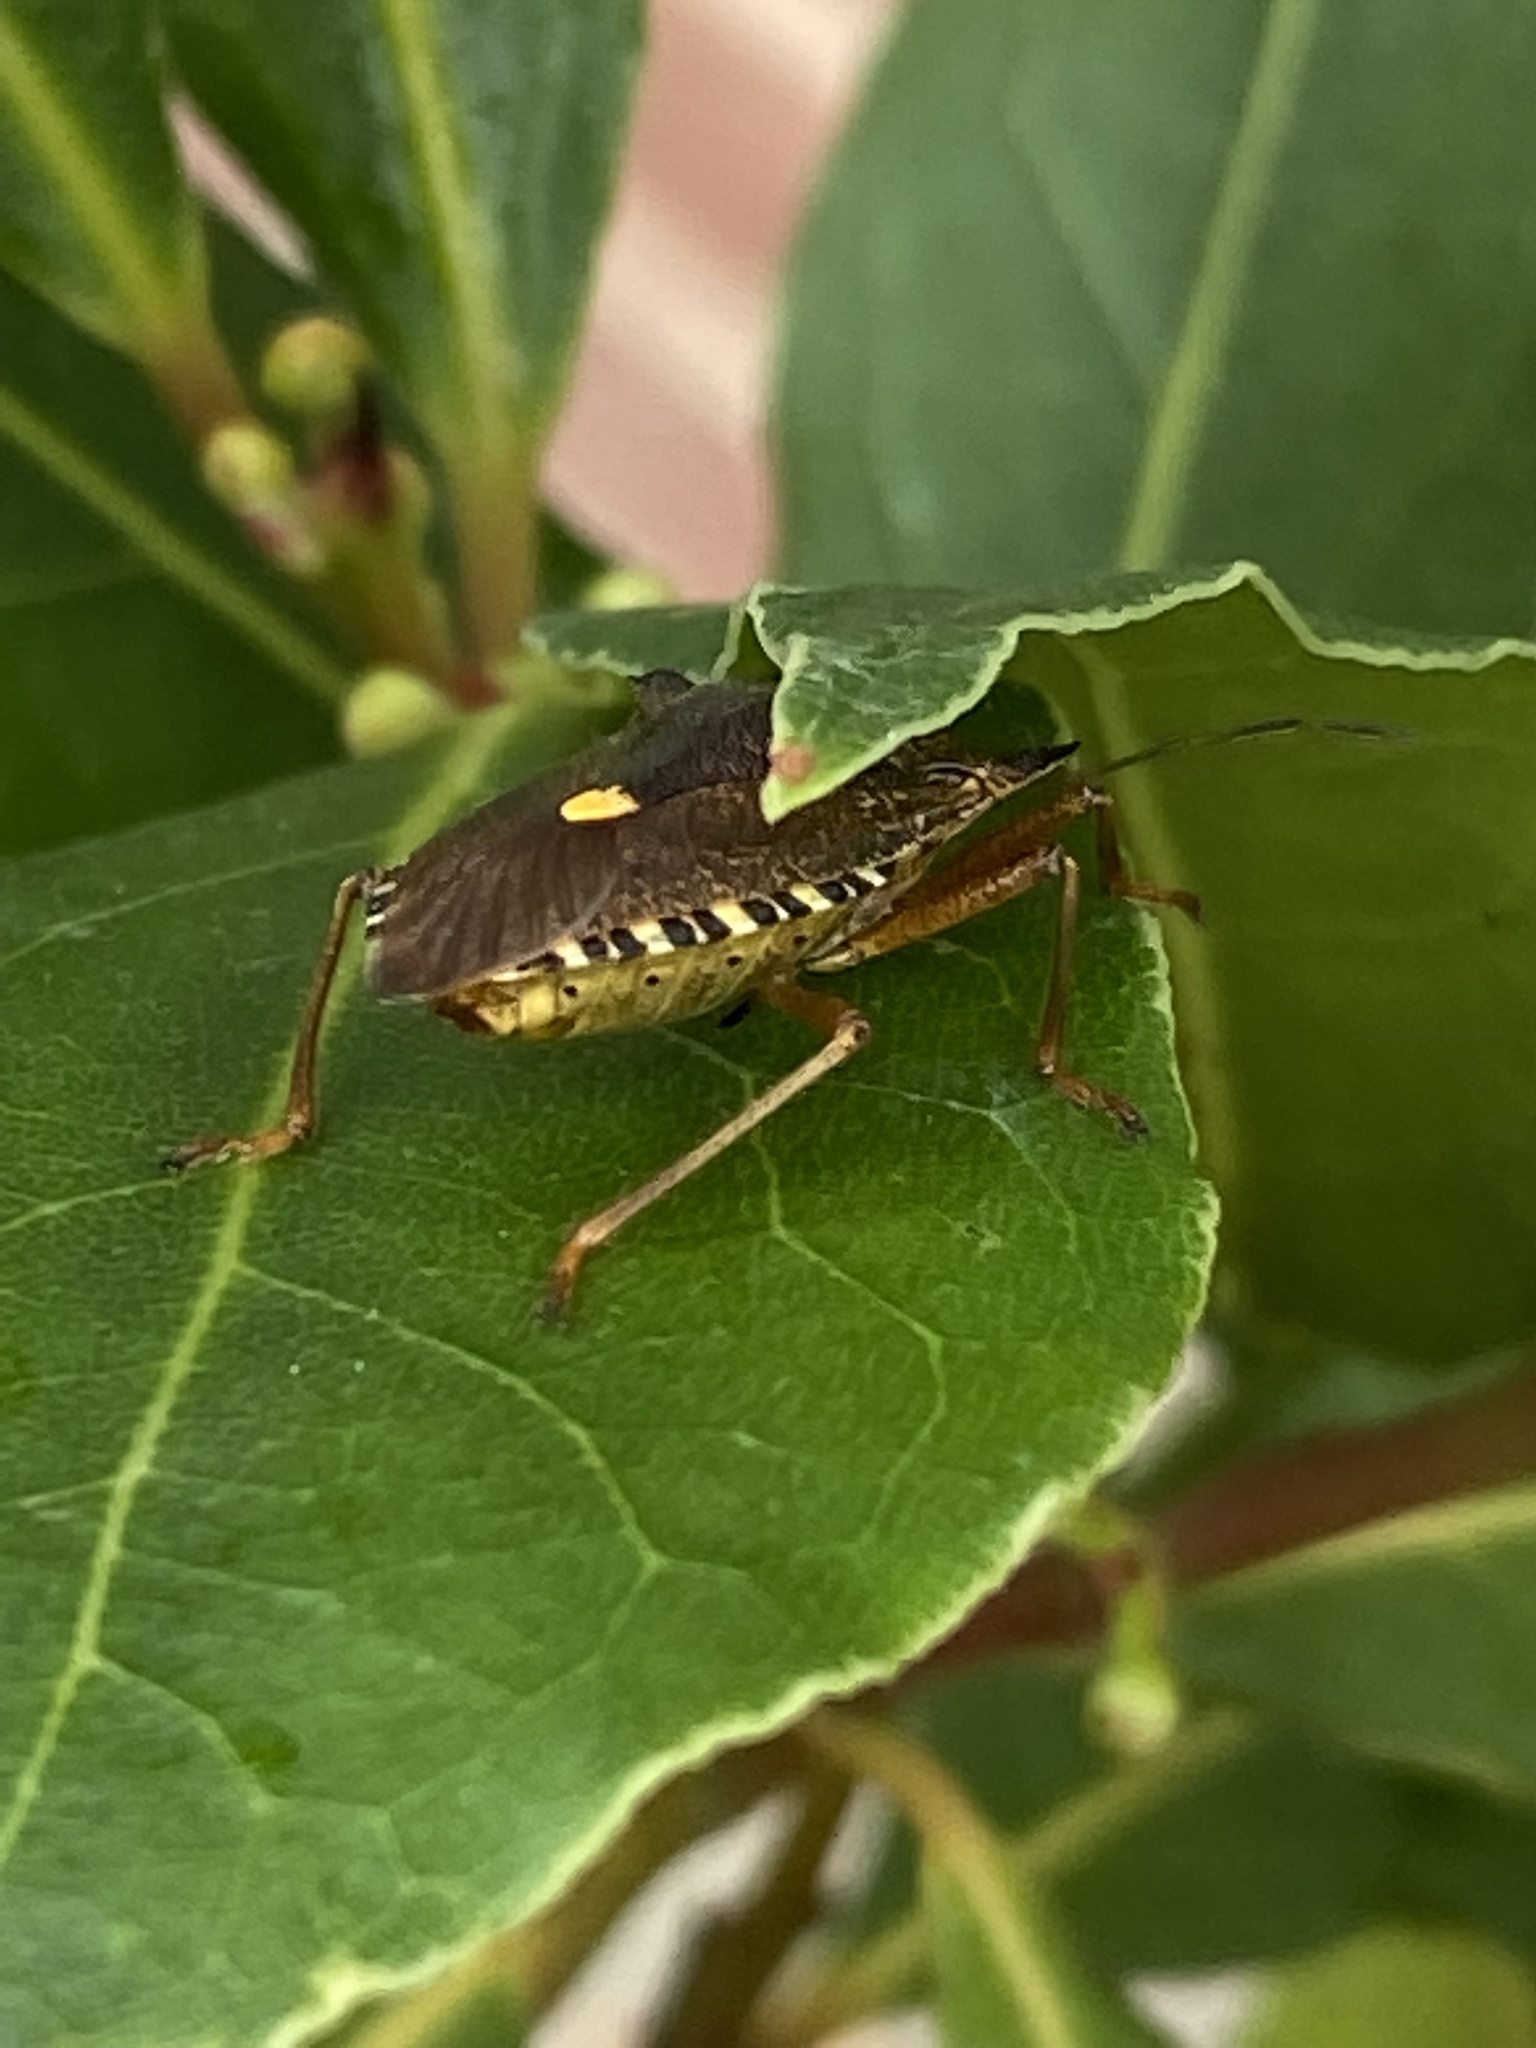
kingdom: Animalia
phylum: Arthropoda
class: Insecta
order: Hemiptera
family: Pentatomidae
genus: Pentatoma
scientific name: Pentatoma rufipes
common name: Forest bug
